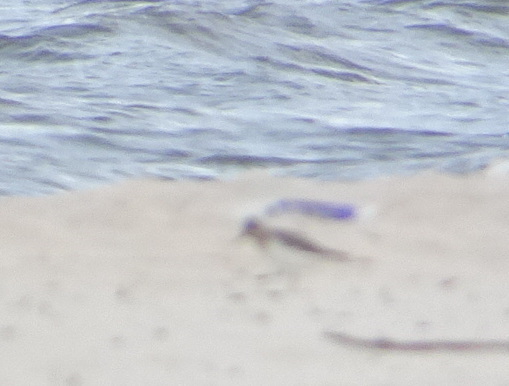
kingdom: Animalia
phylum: Chordata
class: Aves
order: Charadriiformes
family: Scolopacidae
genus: Calidris
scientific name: Calidris alba
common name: Sanderling
